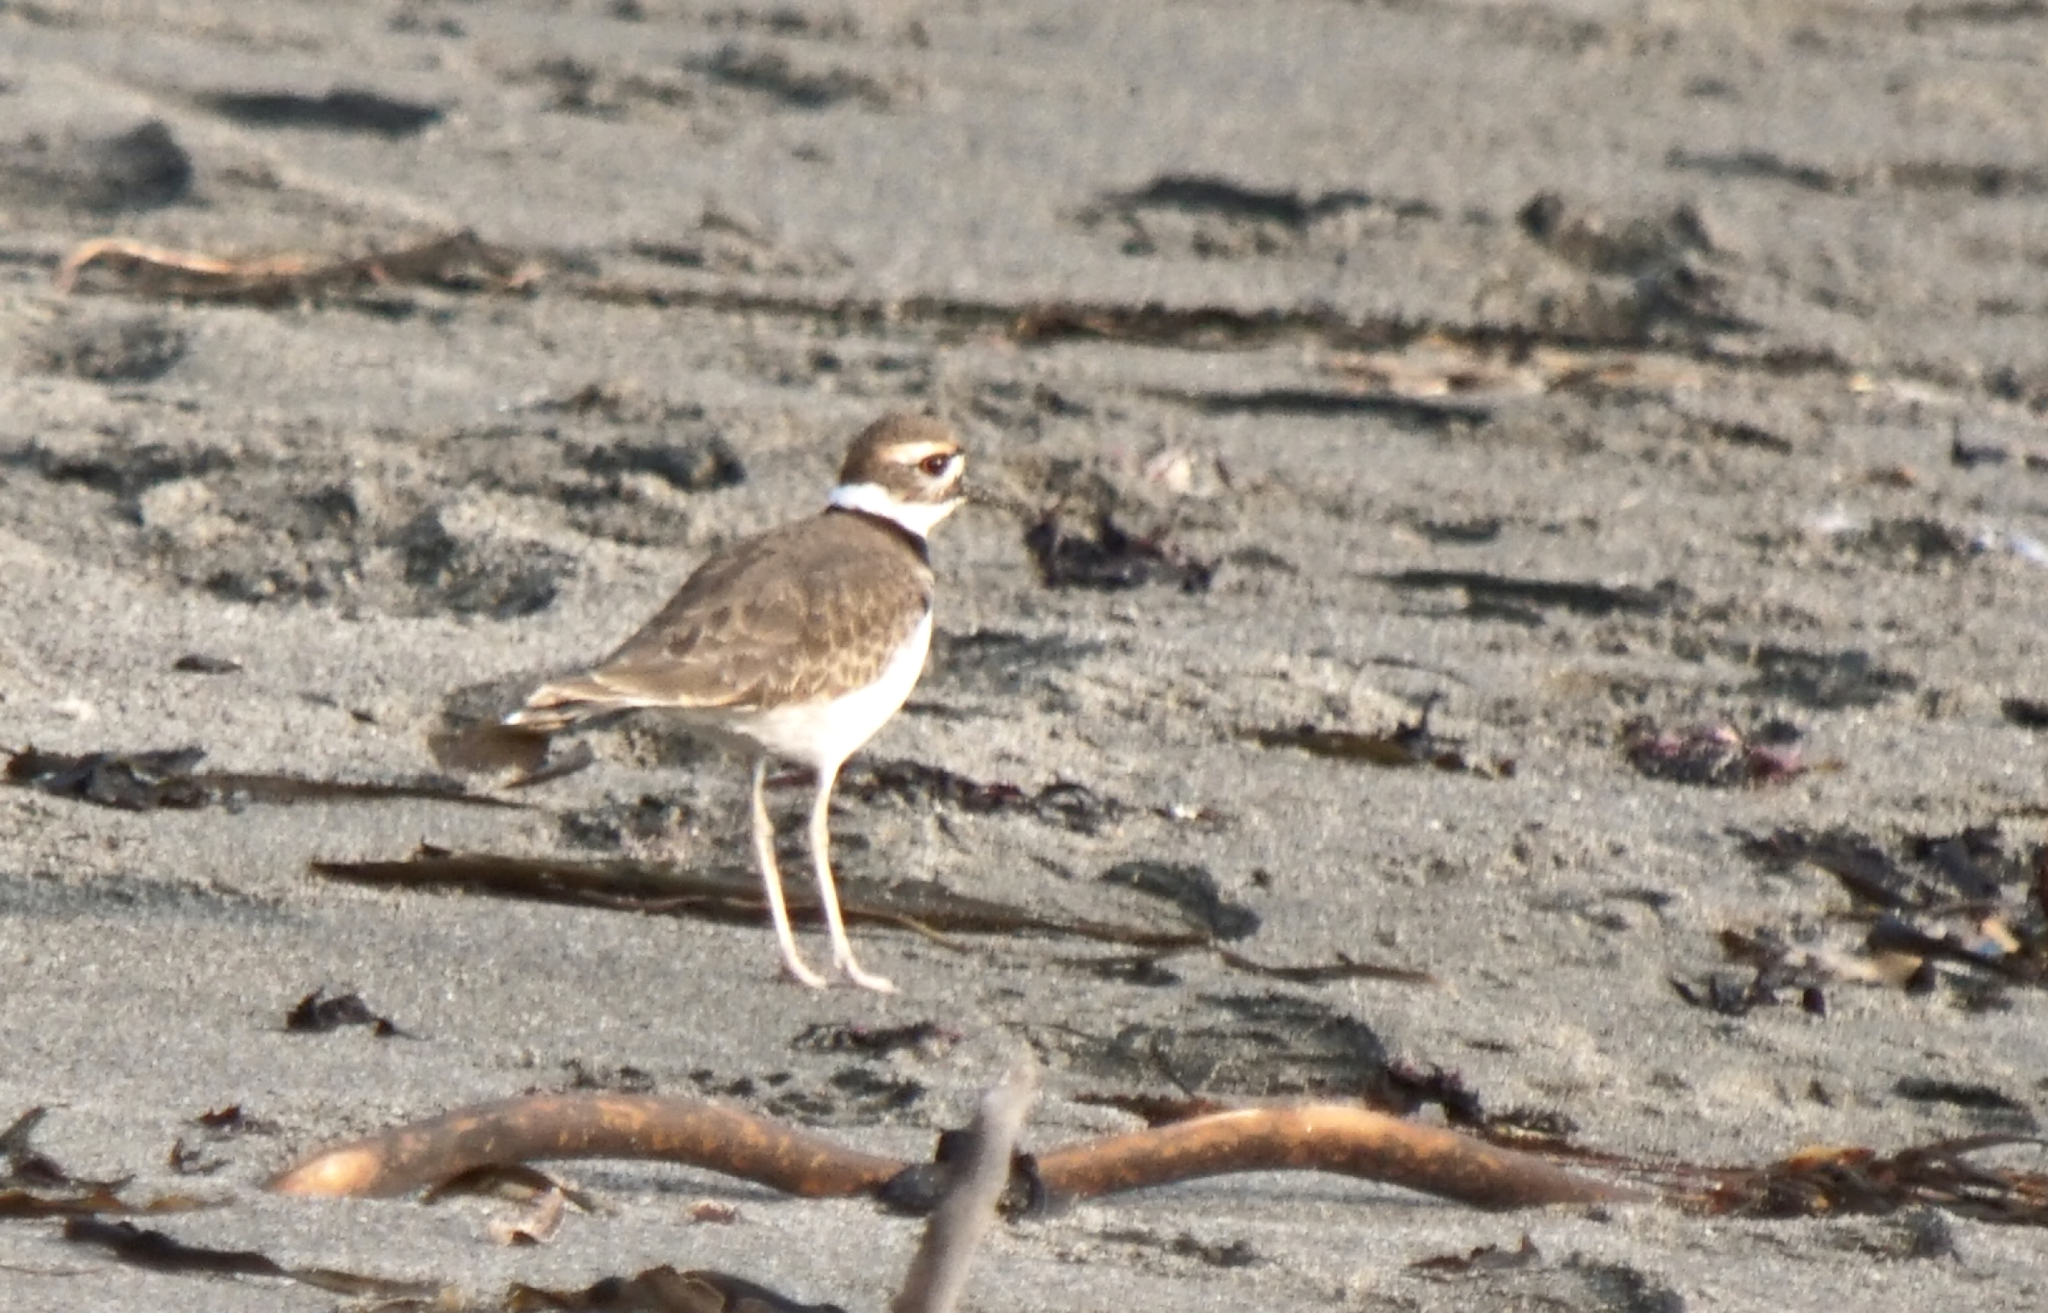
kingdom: Animalia
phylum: Chordata
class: Aves
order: Charadriiformes
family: Charadriidae
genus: Charadrius
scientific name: Charadrius vociferus
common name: Killdeer
